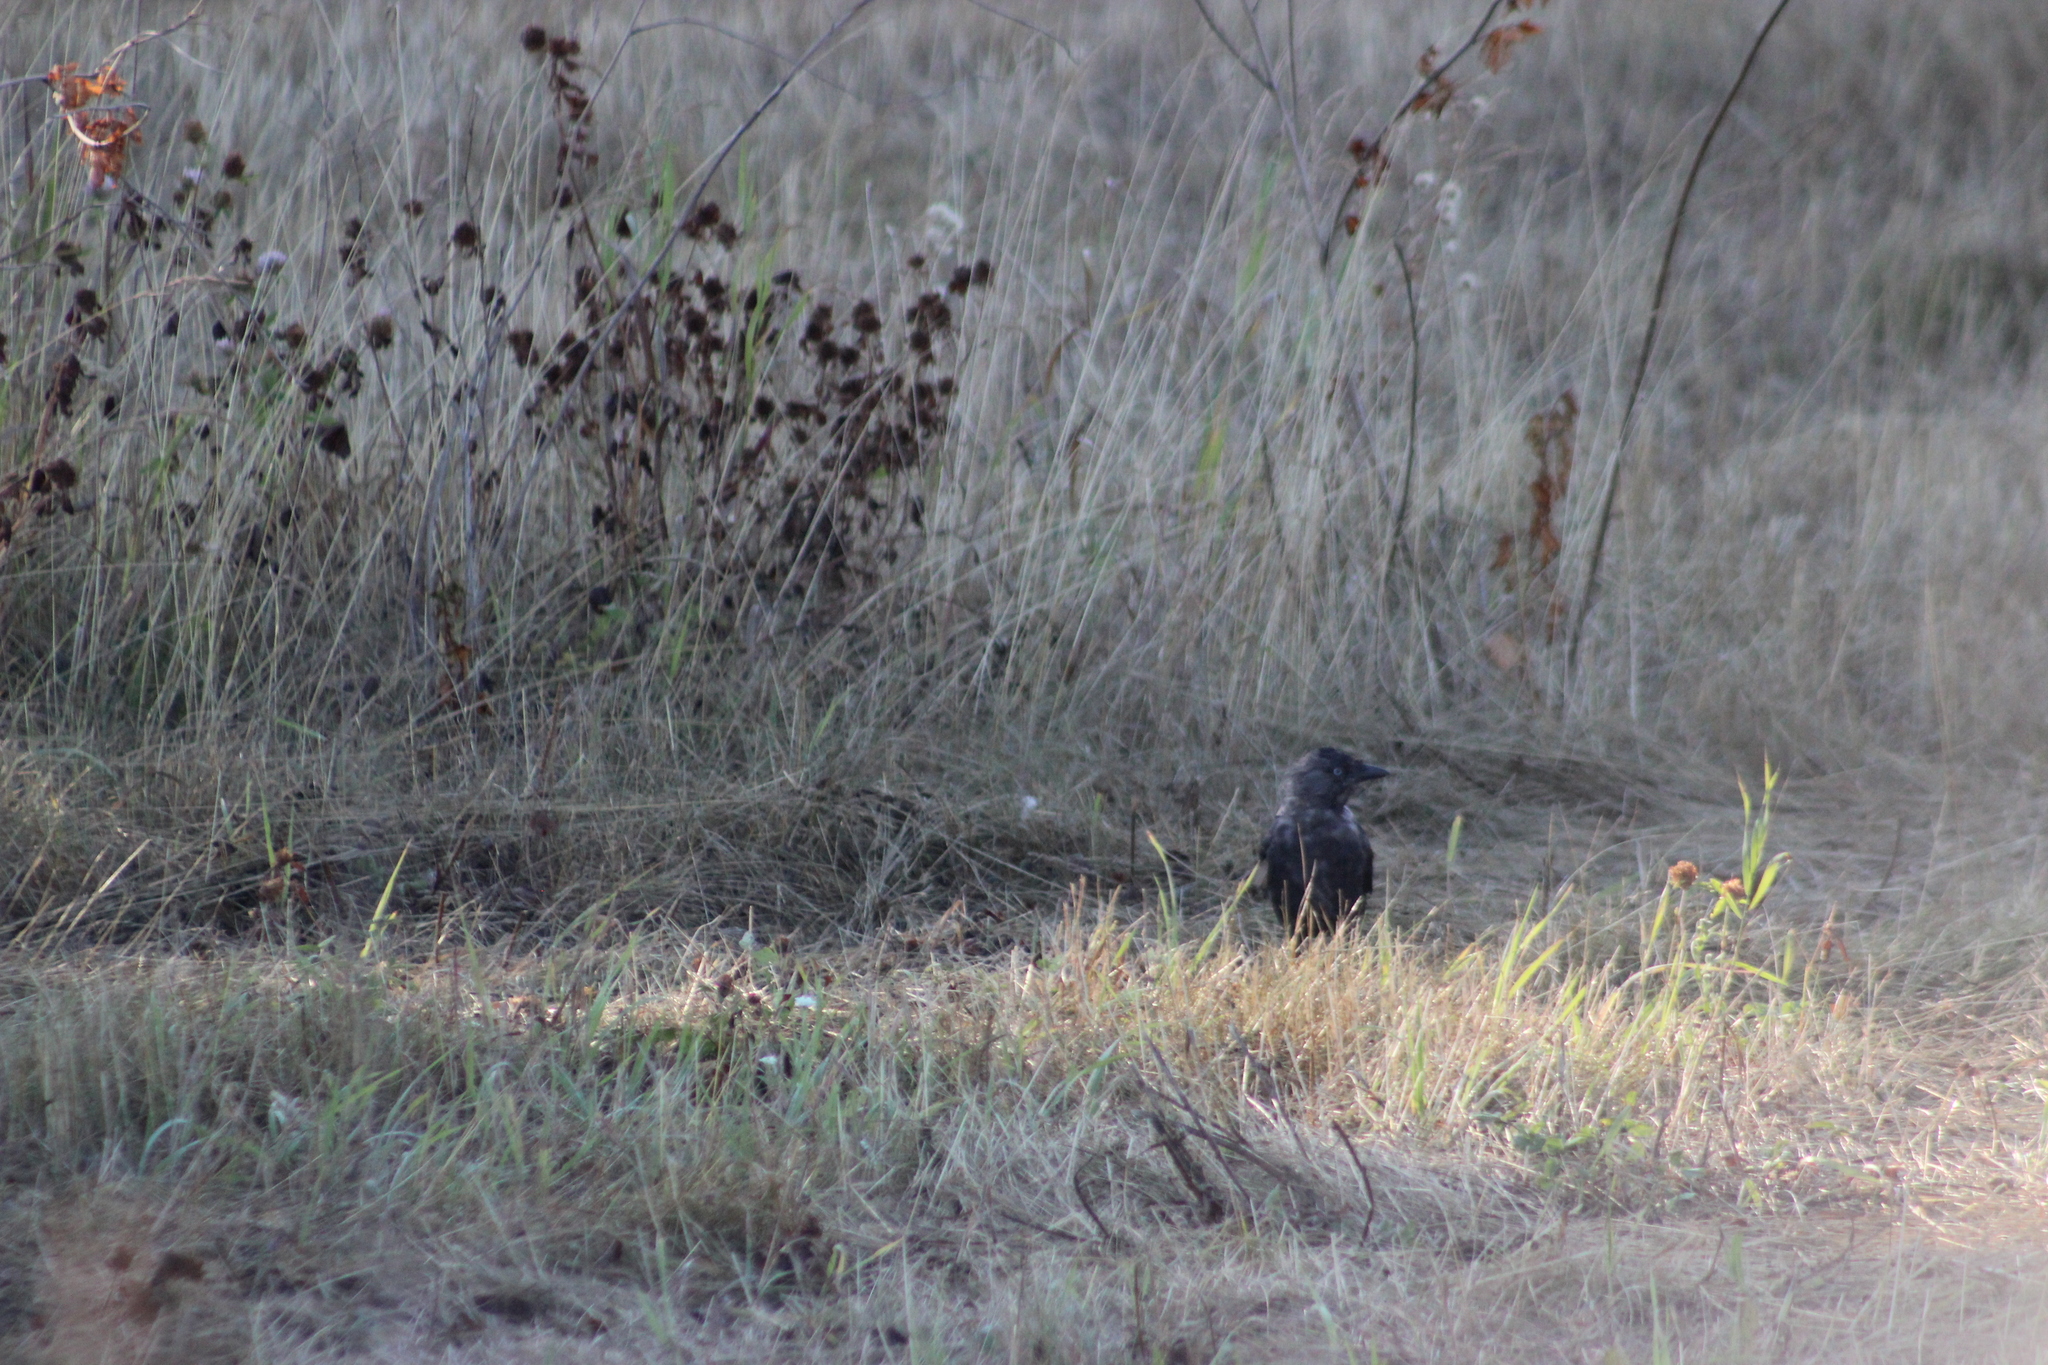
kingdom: Animalia
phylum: Chordata
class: Aves
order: Passeriformes
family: Corvidae
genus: Coloeus
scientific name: Coloeus monedula
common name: Western jackdaw
